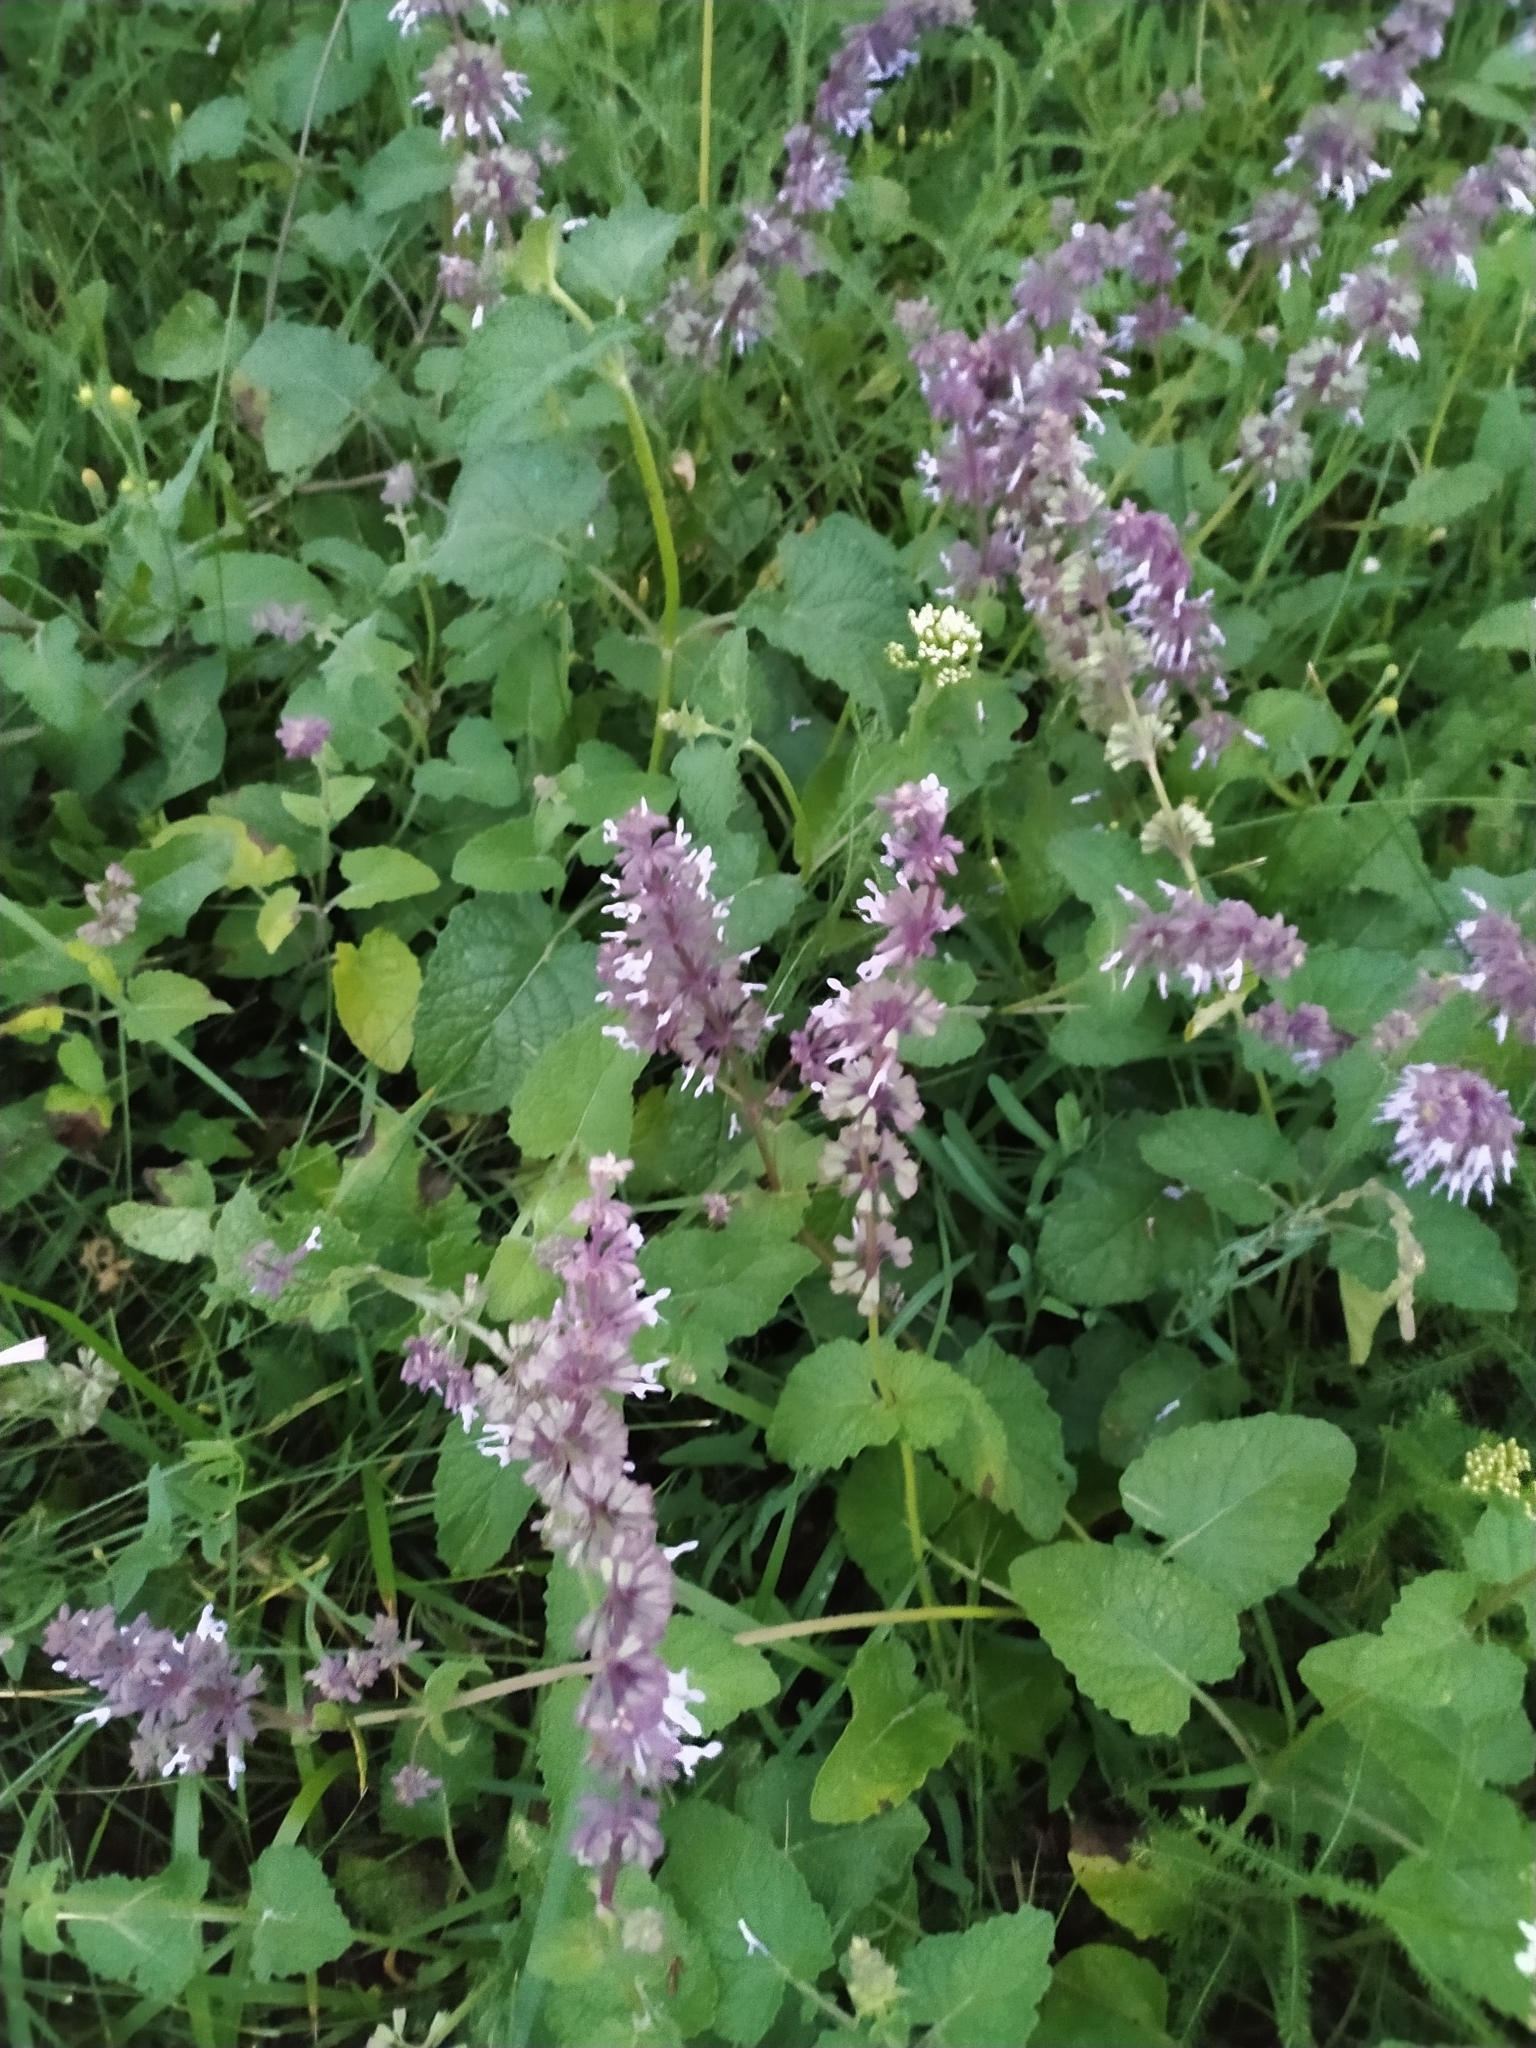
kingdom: Plantae
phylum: Tracheophyta
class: Magnoliopsida
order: Lamiales
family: Lamiaceae
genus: Salvia
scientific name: Salvia verticillata
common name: Whorled clary
